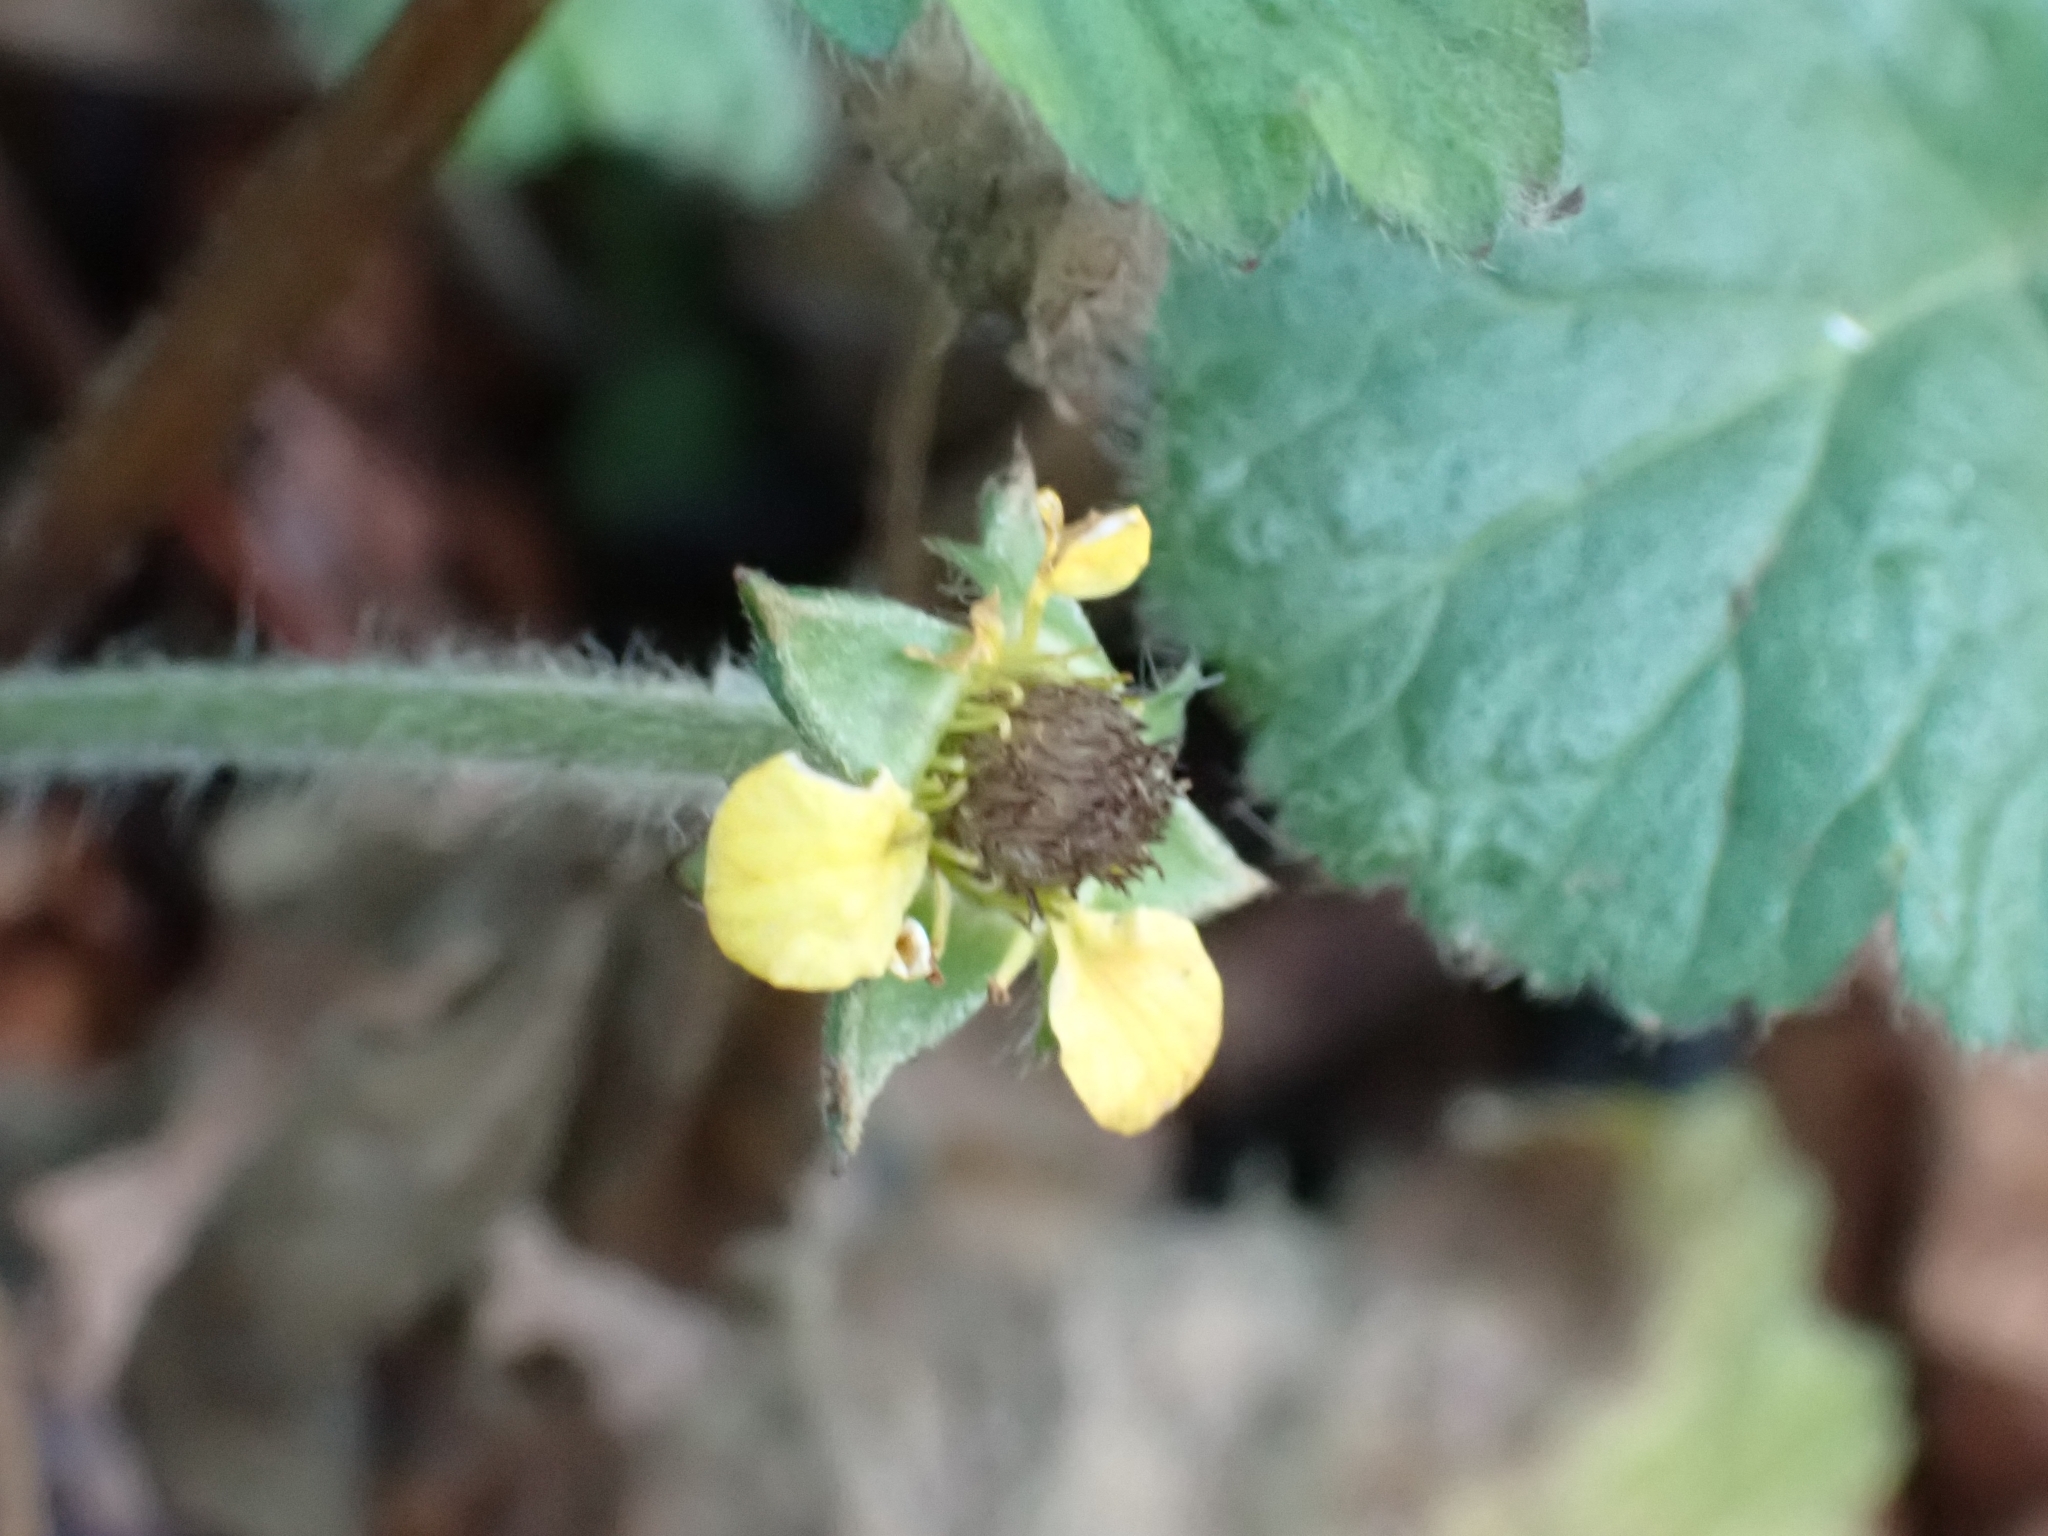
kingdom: Plantae
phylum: Tracheophyta
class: Magnoliopsida
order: Rosales
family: Rosaceae
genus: Geum
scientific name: Geum urbanum
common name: Wood avens
